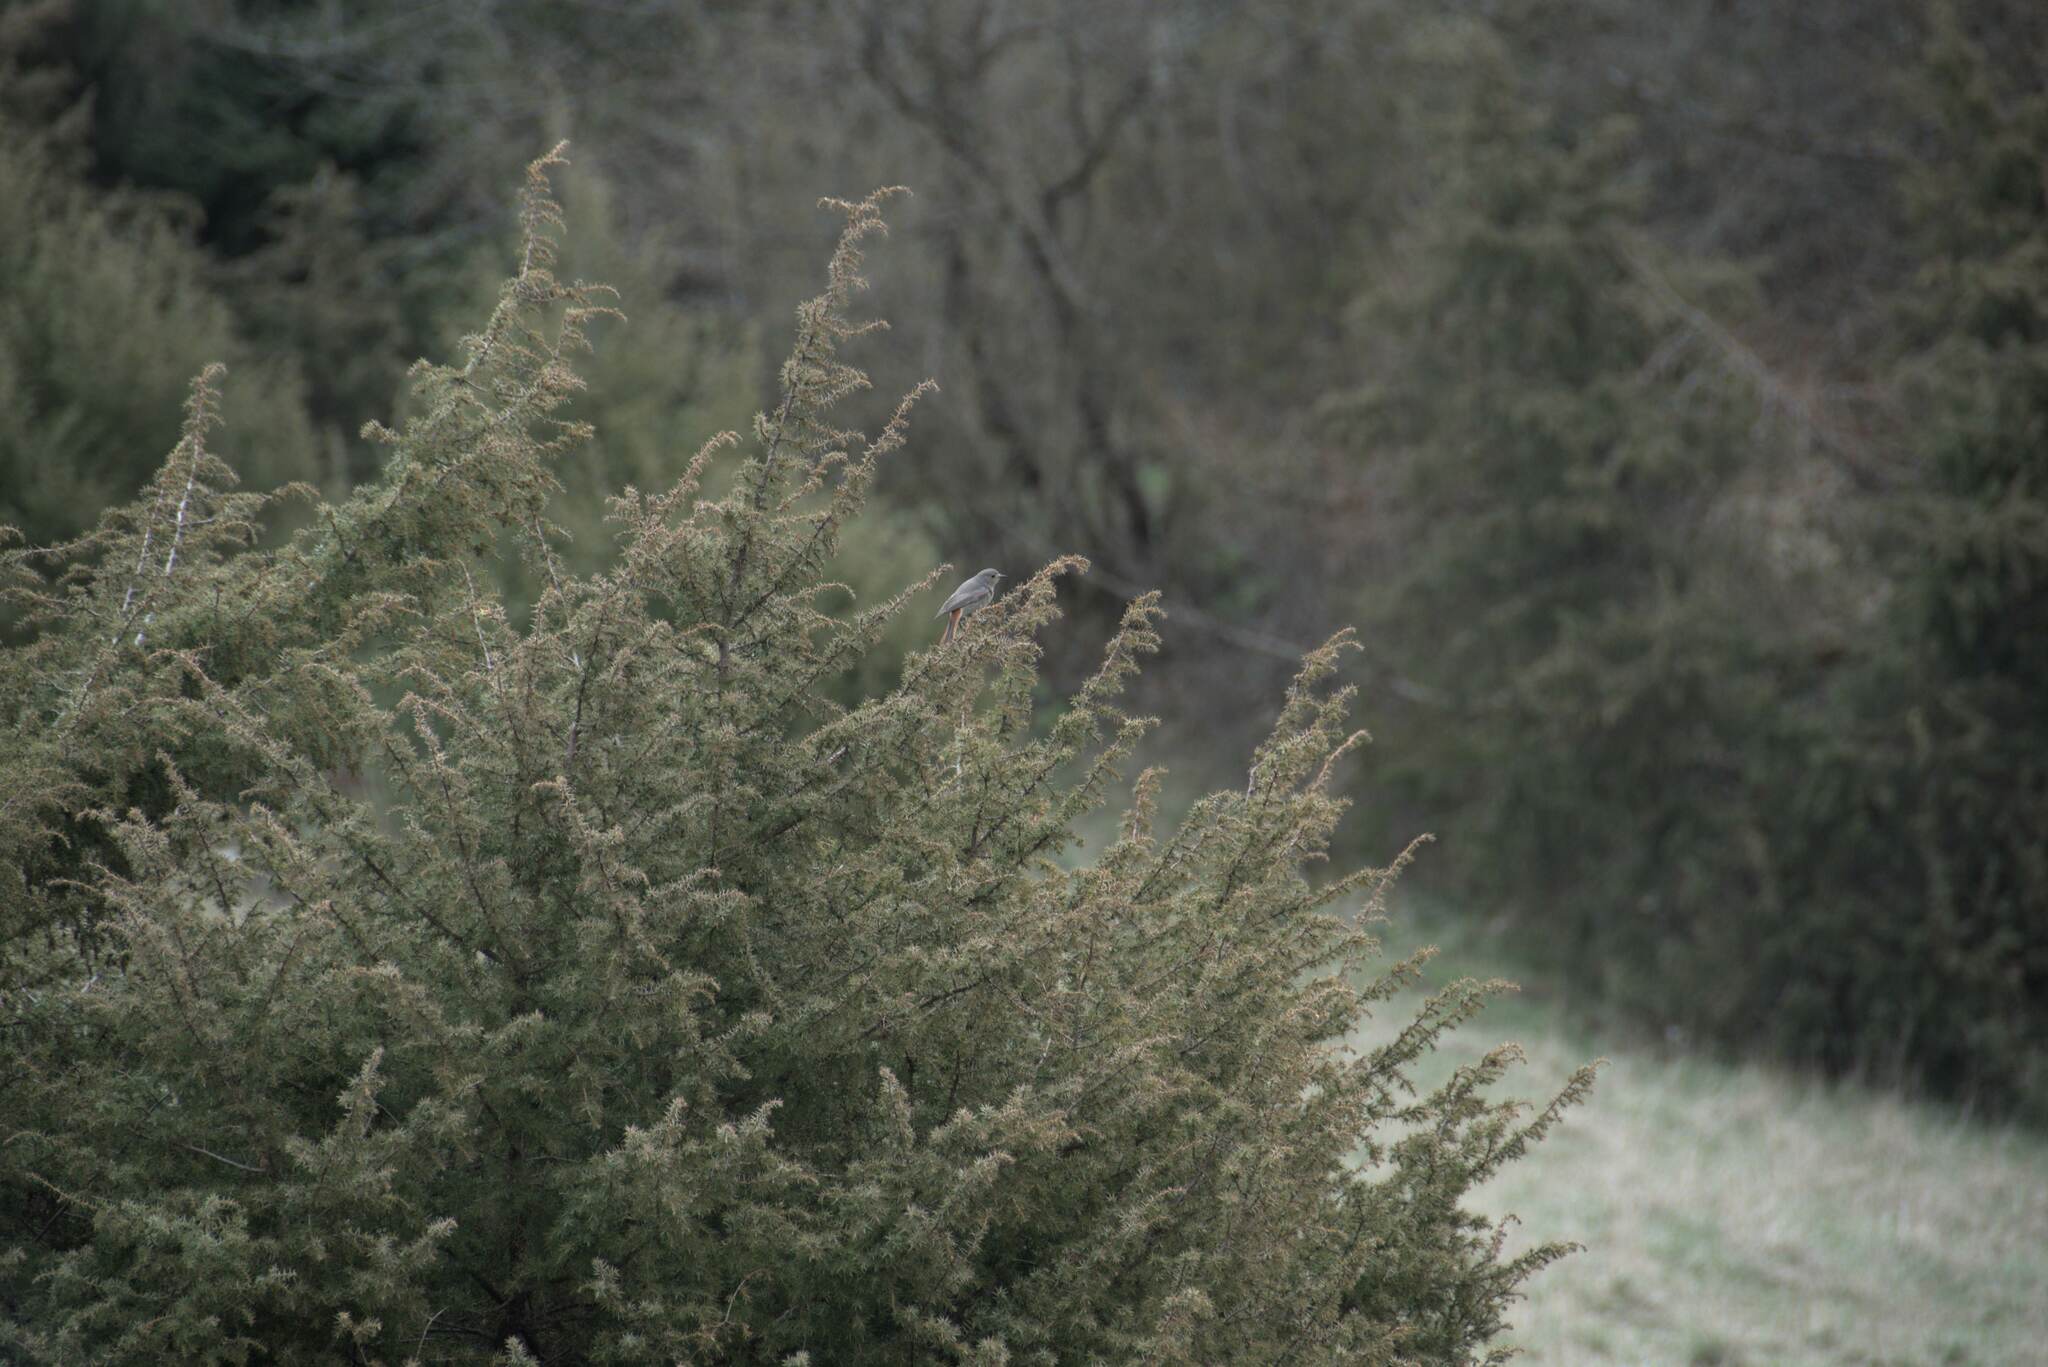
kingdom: Animalia
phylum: Chordata
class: Aves
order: Passeriformes
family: Muscicapidae
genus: Phoenicurus
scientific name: Phoenicurus ochruros
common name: Black redstart
